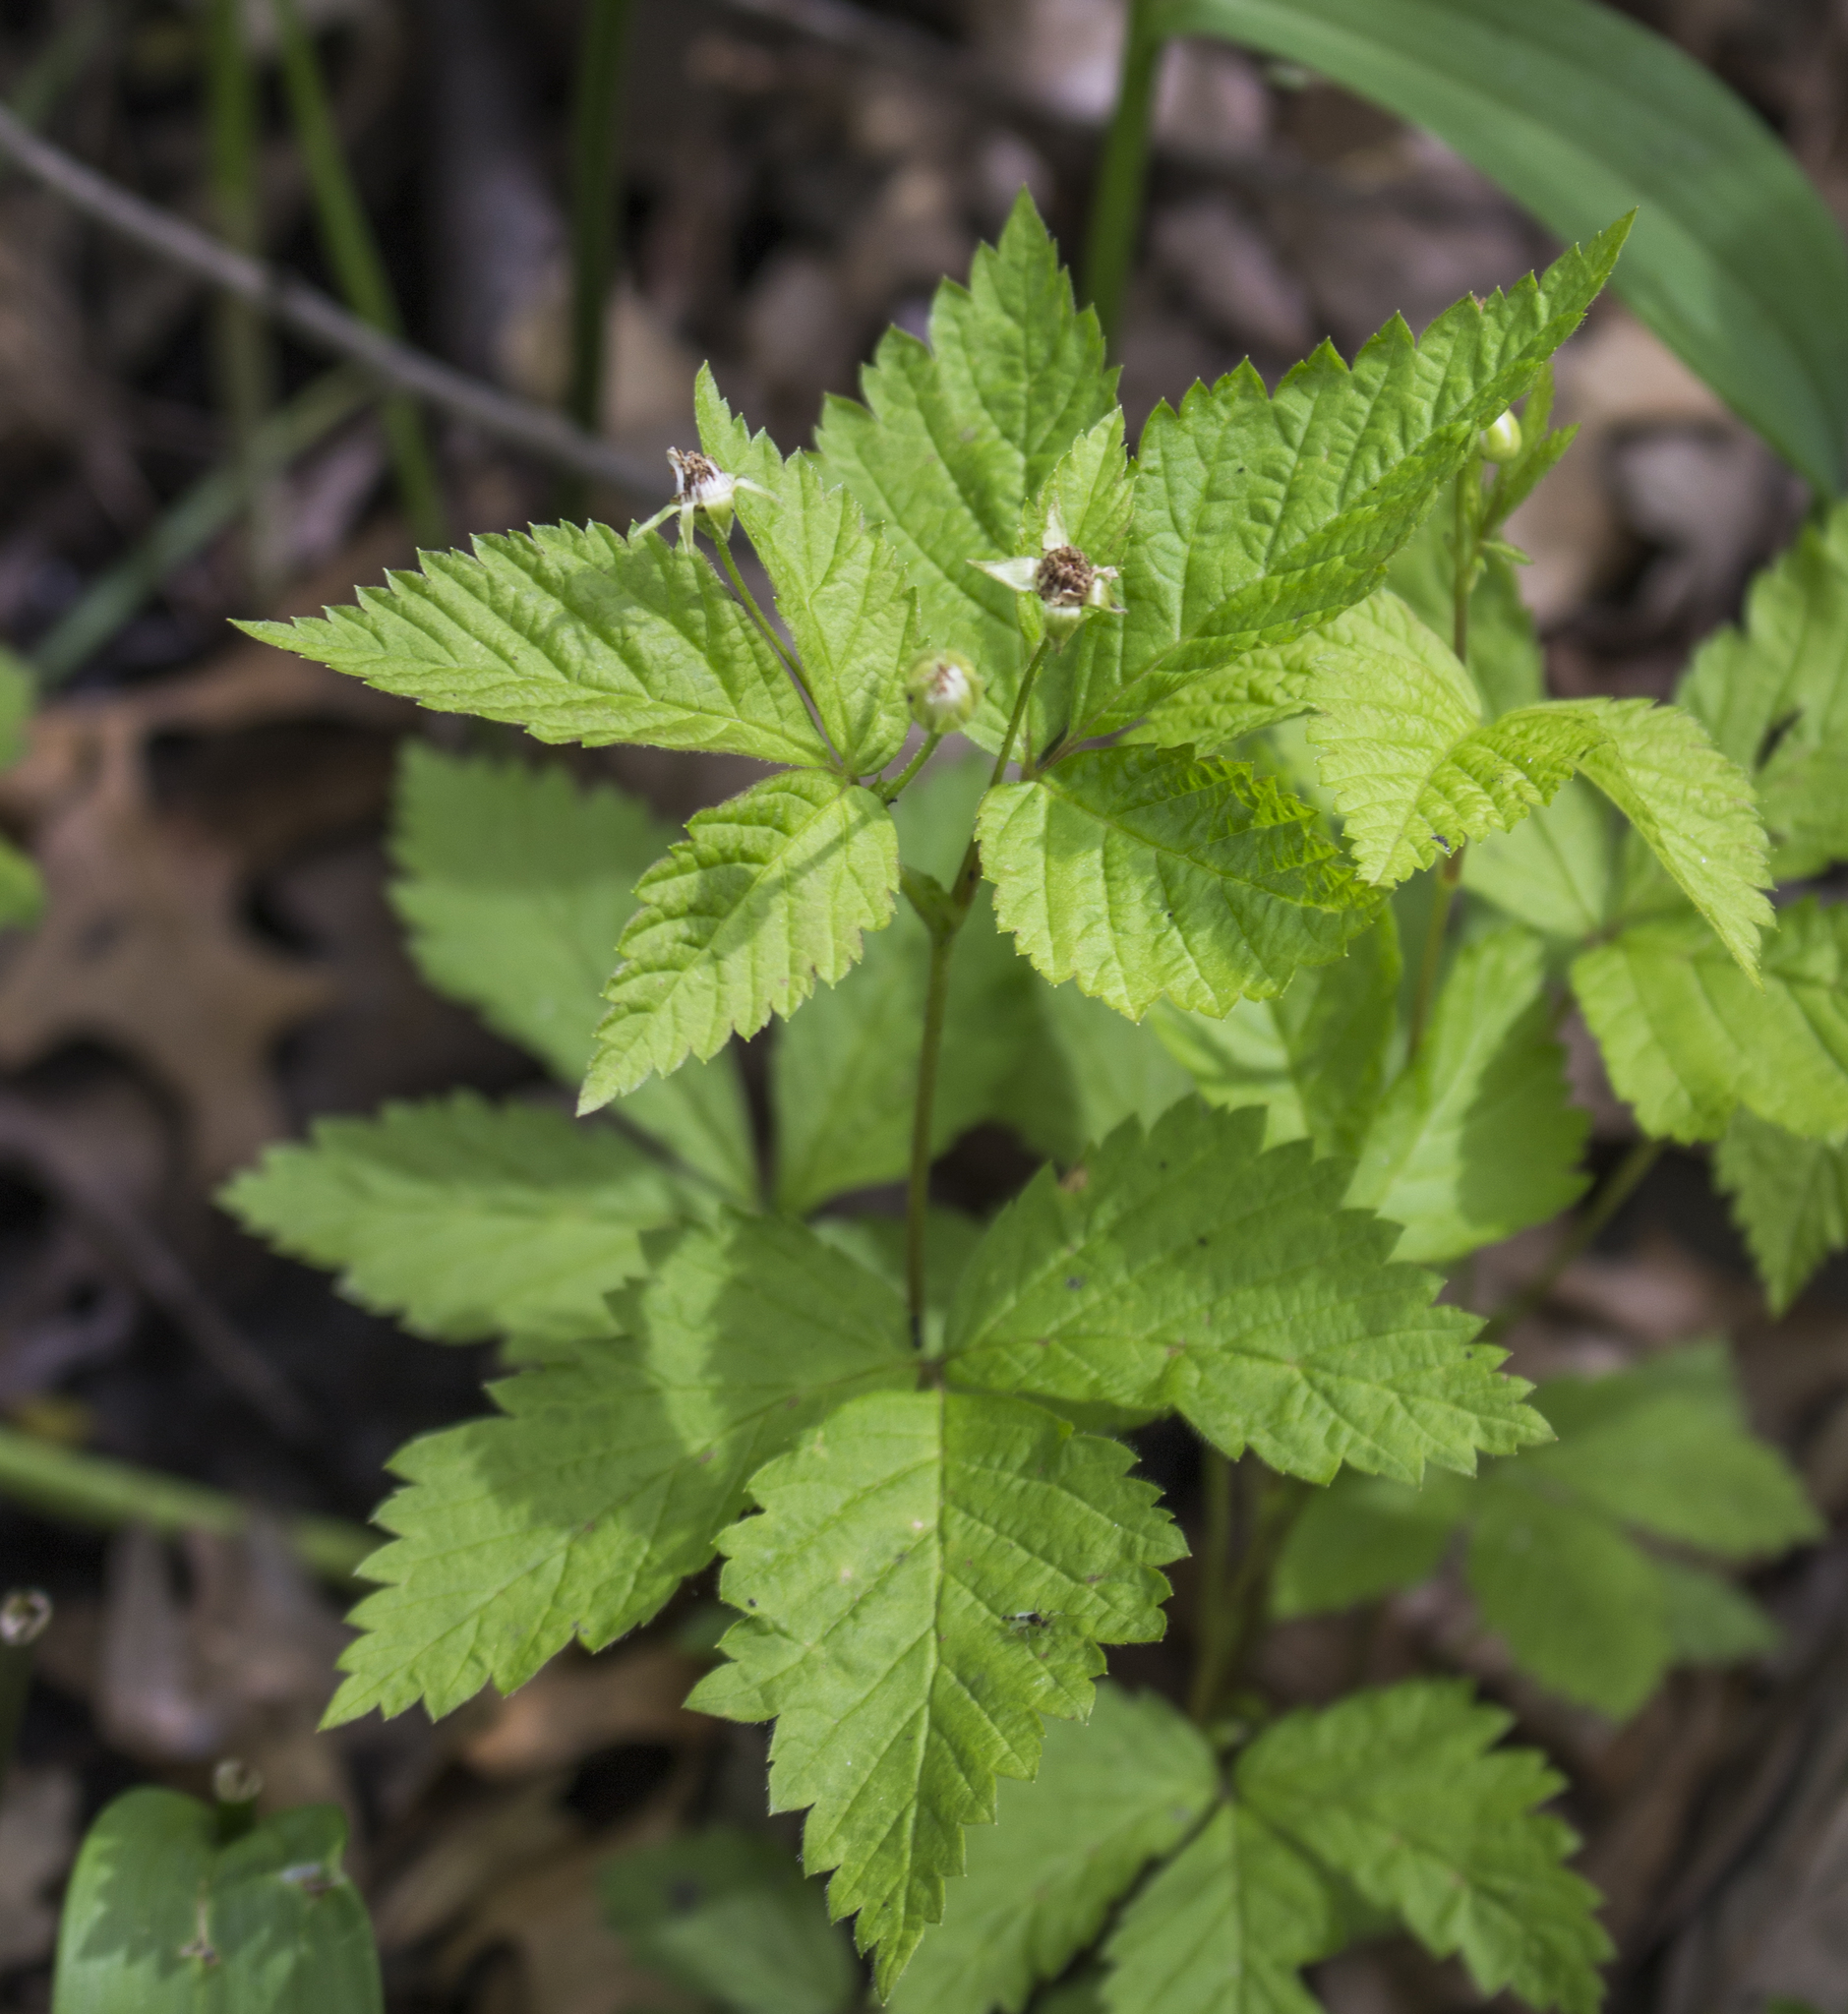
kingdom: Plantae
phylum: Tracheophyta
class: Magnoliopsida
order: Rosales
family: Rosaceae
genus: Rubus
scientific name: Rubus pubescens
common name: Dwarf raspberry
